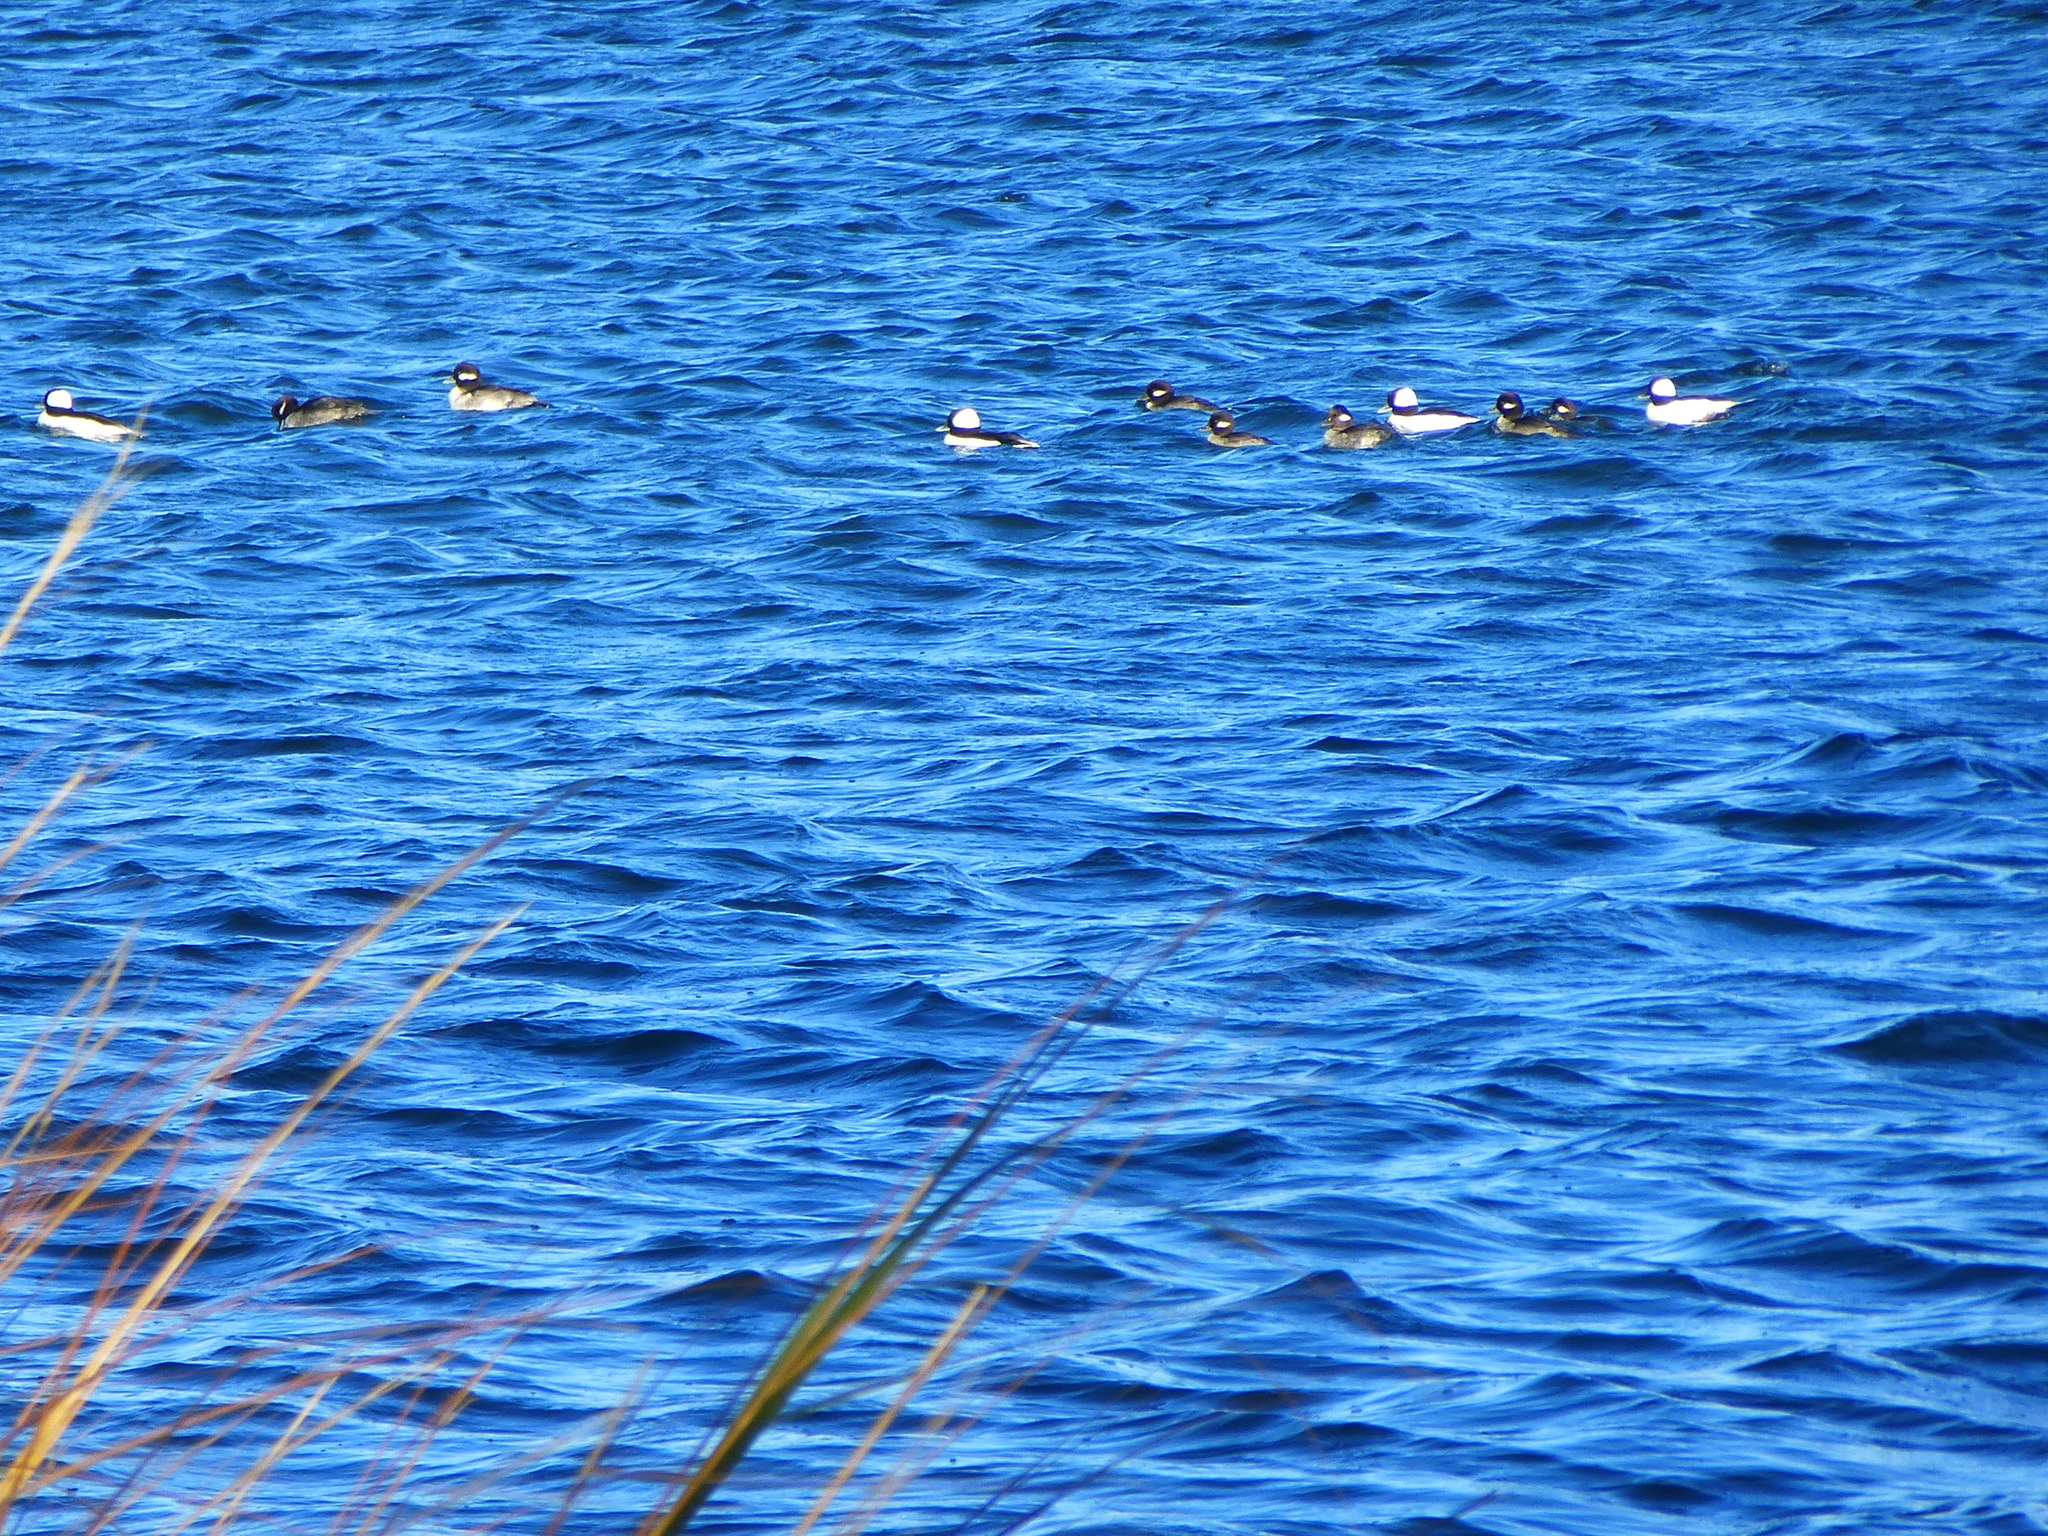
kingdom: Animalia
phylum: Chordata
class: Aves
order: Anseriformes
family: Anatidae
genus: Bucephala
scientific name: Bucephala albeola
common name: Bufflehead
